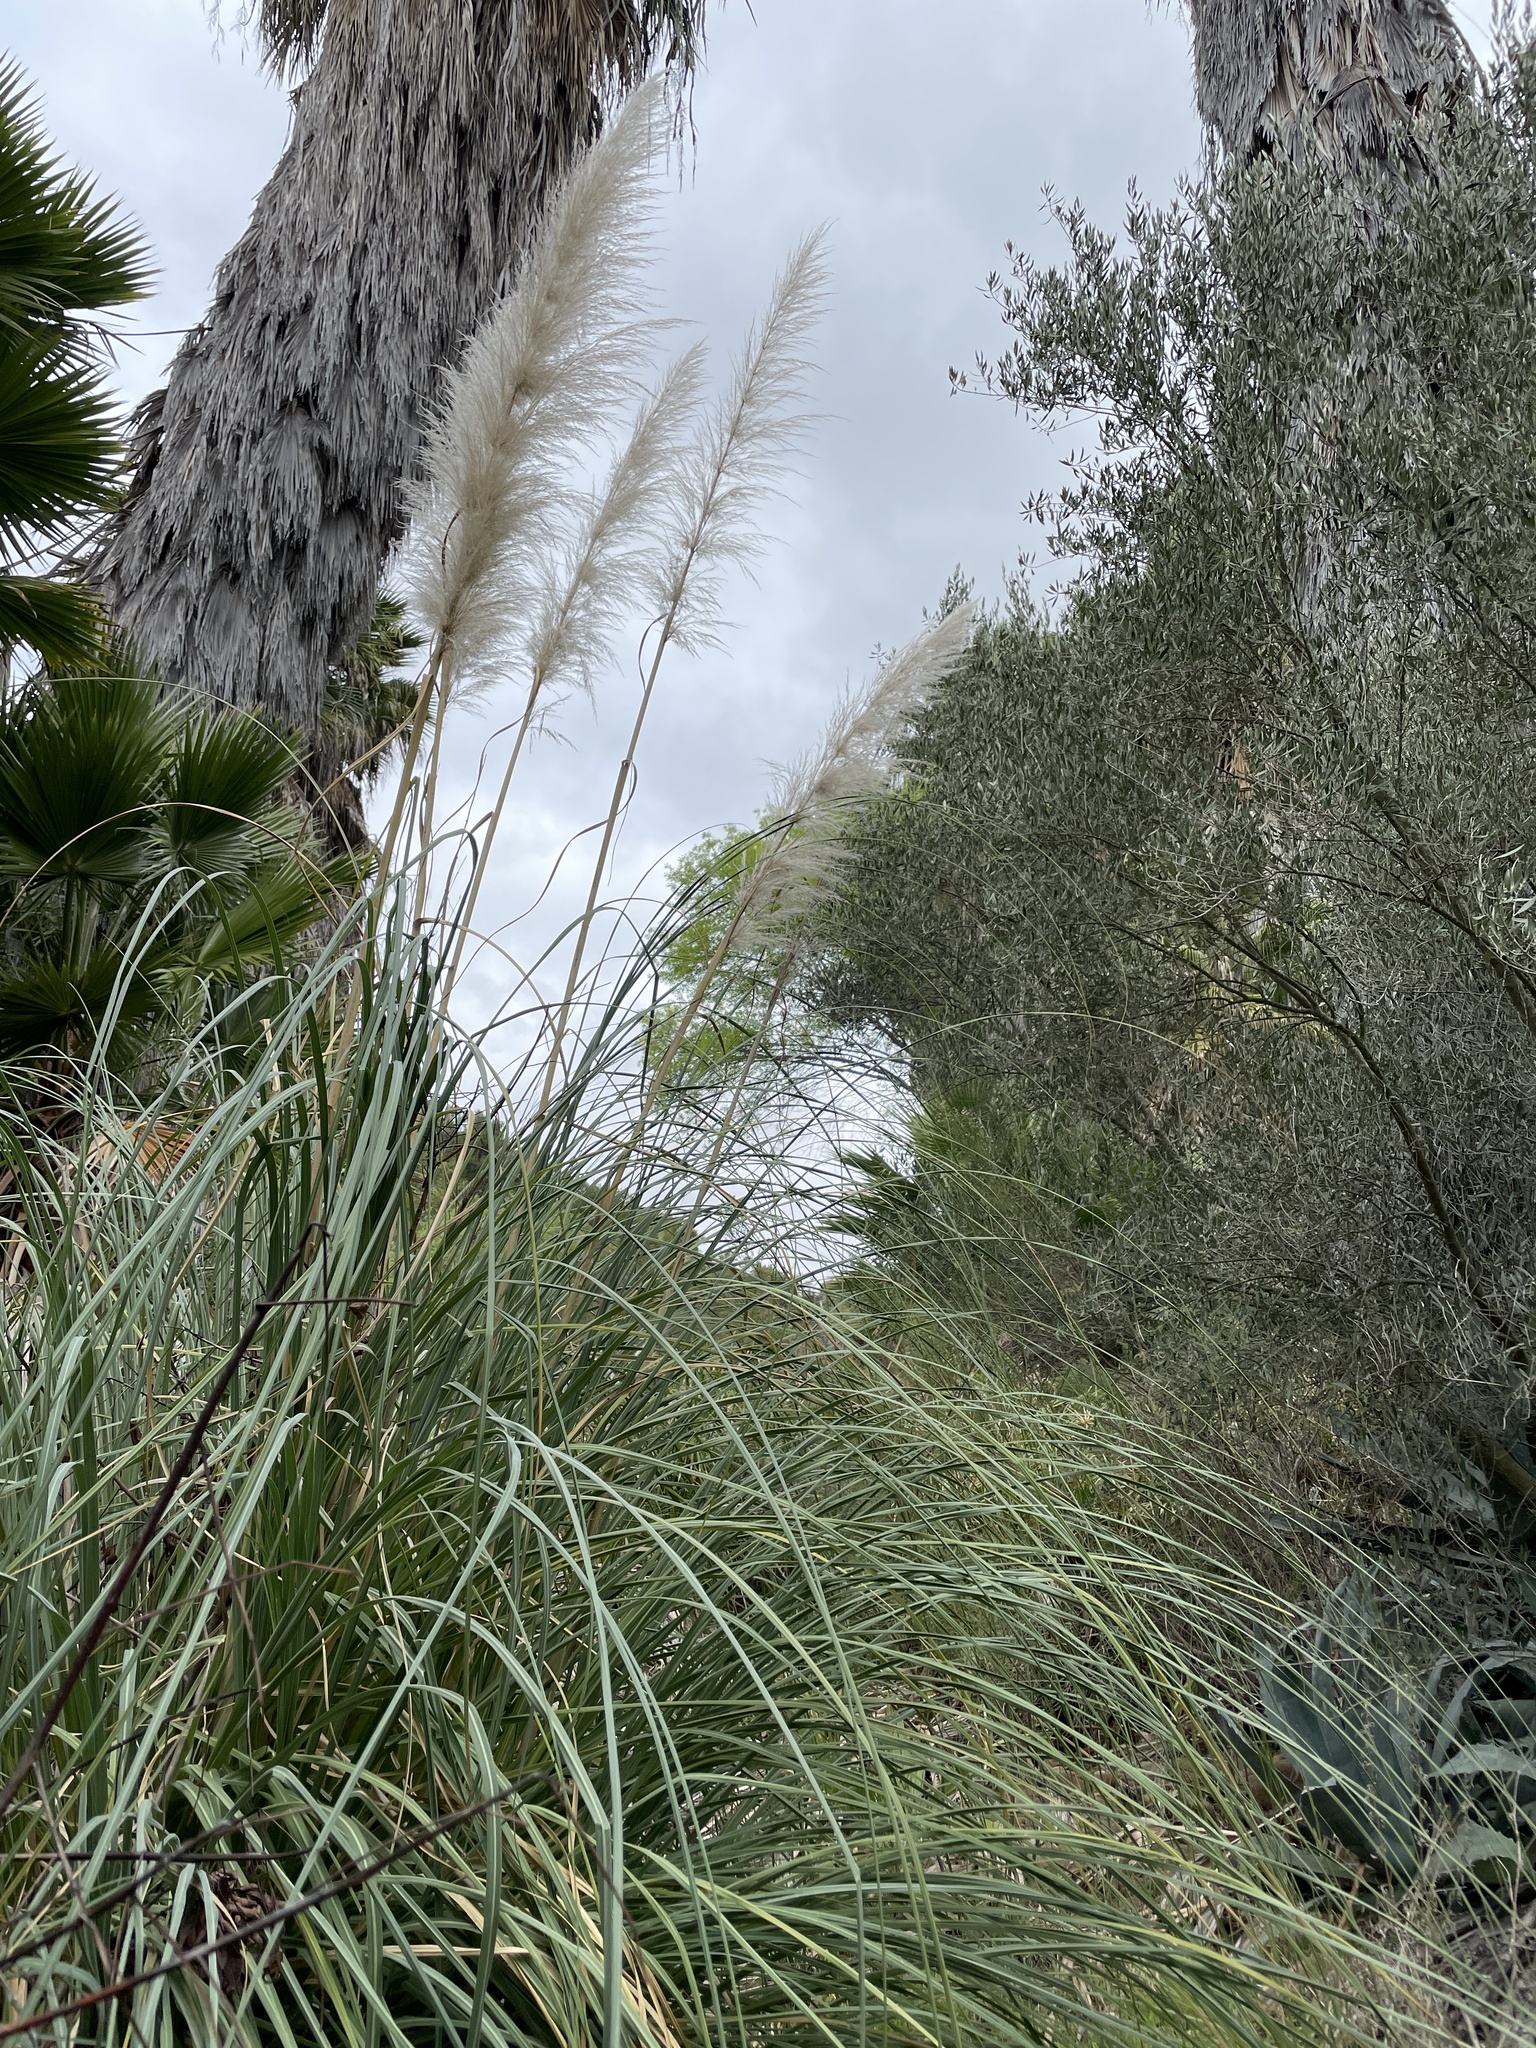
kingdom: Plantae
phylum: Tracheophyta
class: Liliopsida
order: Poales
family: Poaceae
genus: Cortaderia
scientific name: Cortaderia selloana
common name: Uruguayan pampas grass
